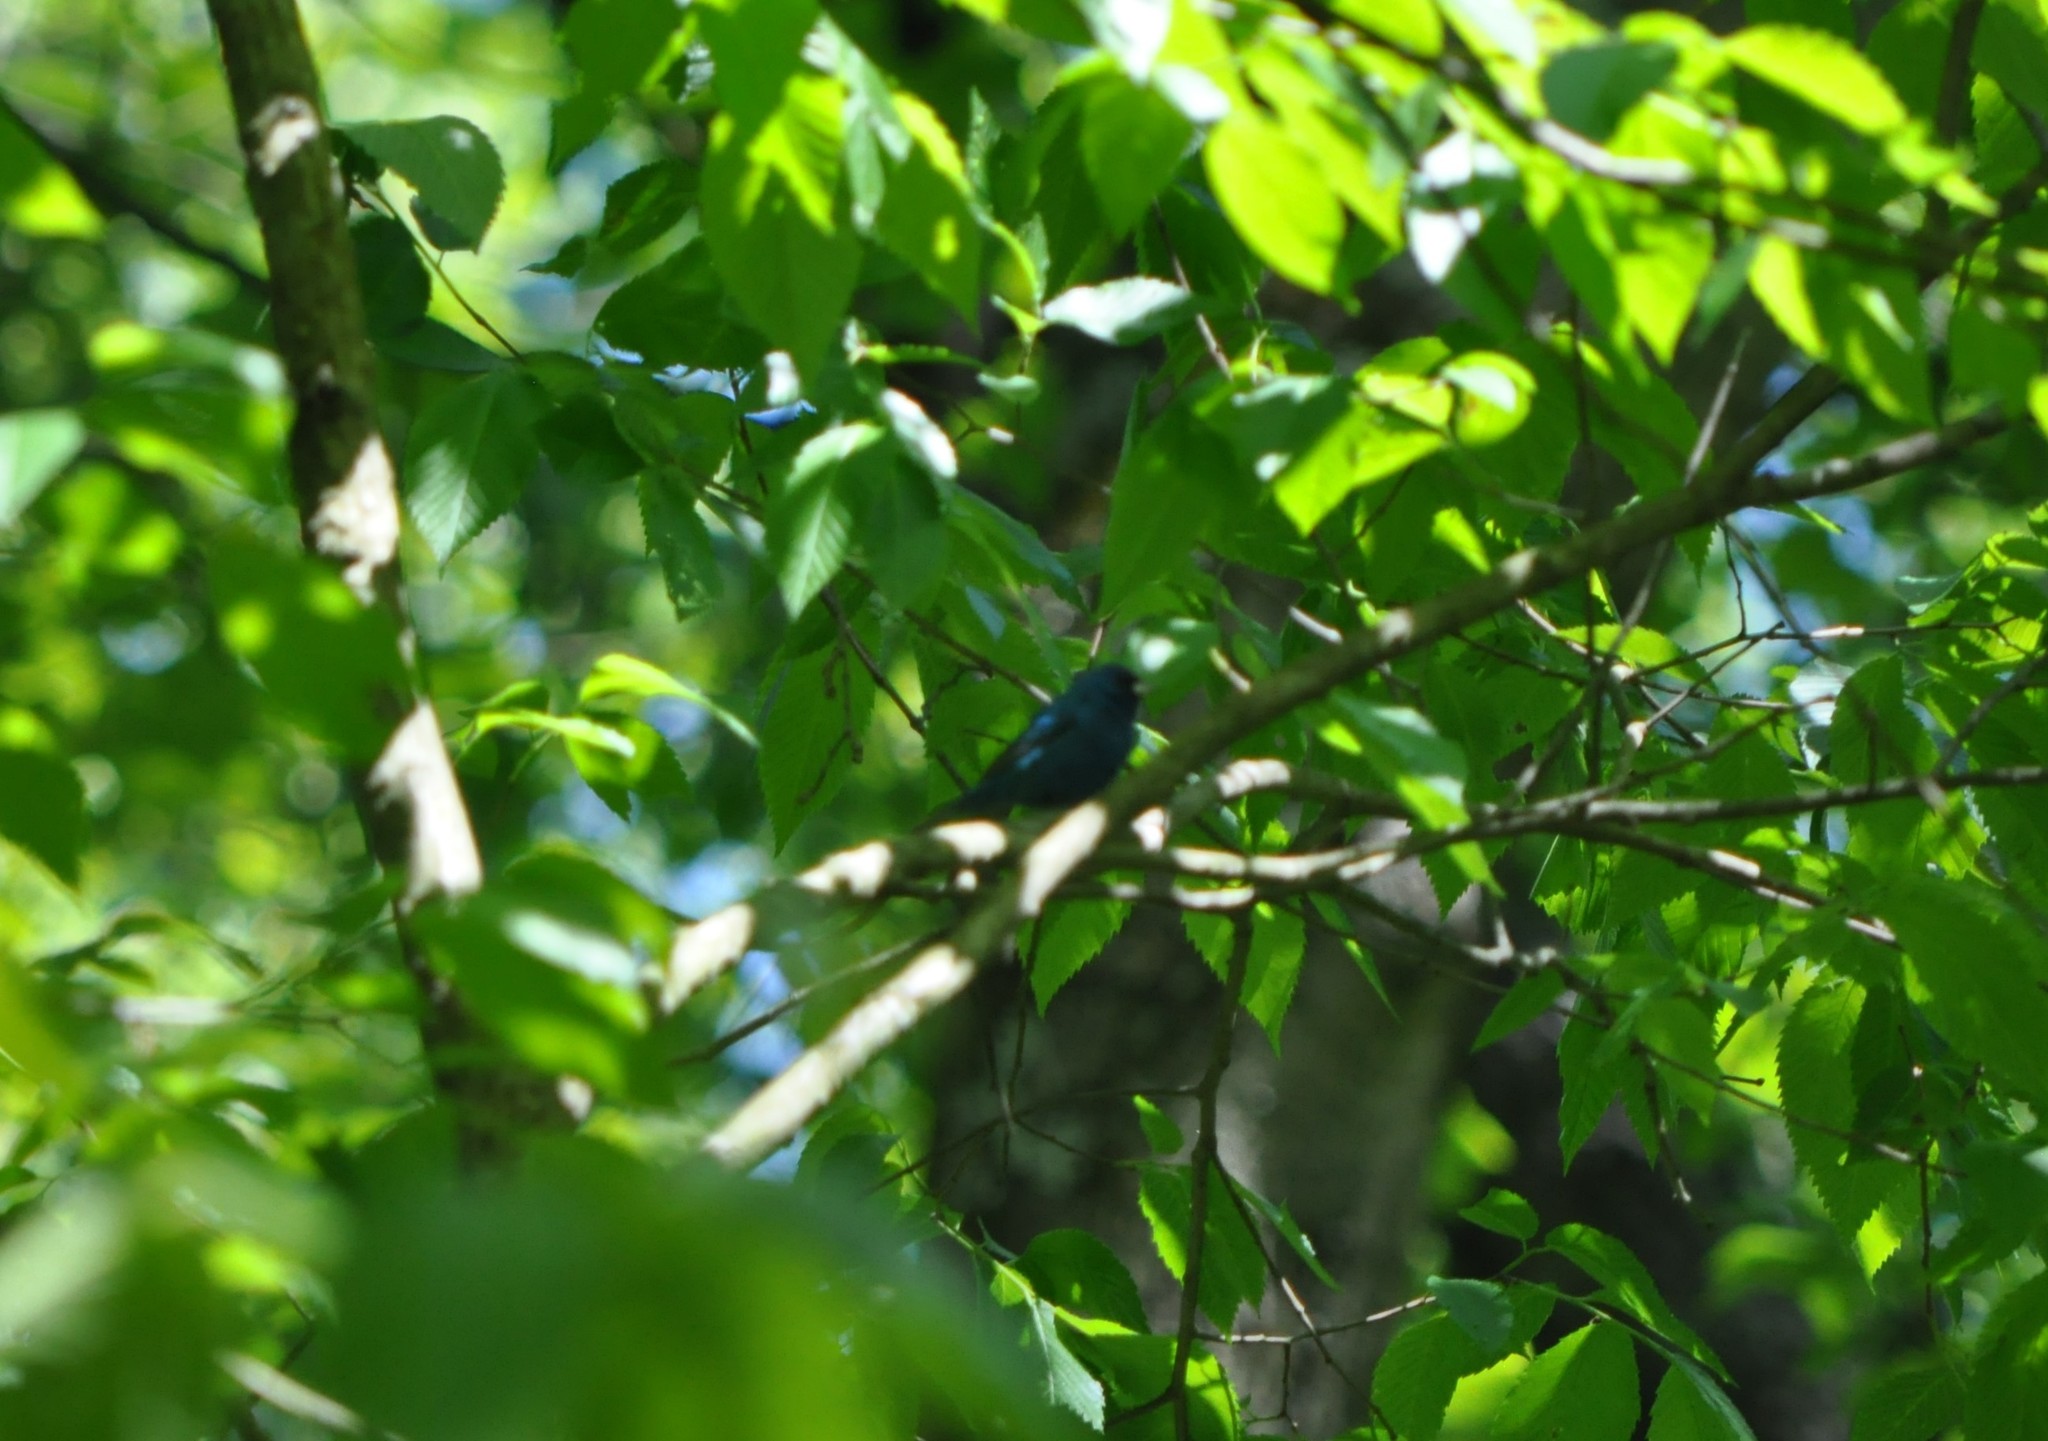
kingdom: Animalia
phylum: Chordata
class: Aves
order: Passeriformes
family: Cardinalidae
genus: Passerina
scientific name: Passerina cyanea
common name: Indigo bunting
